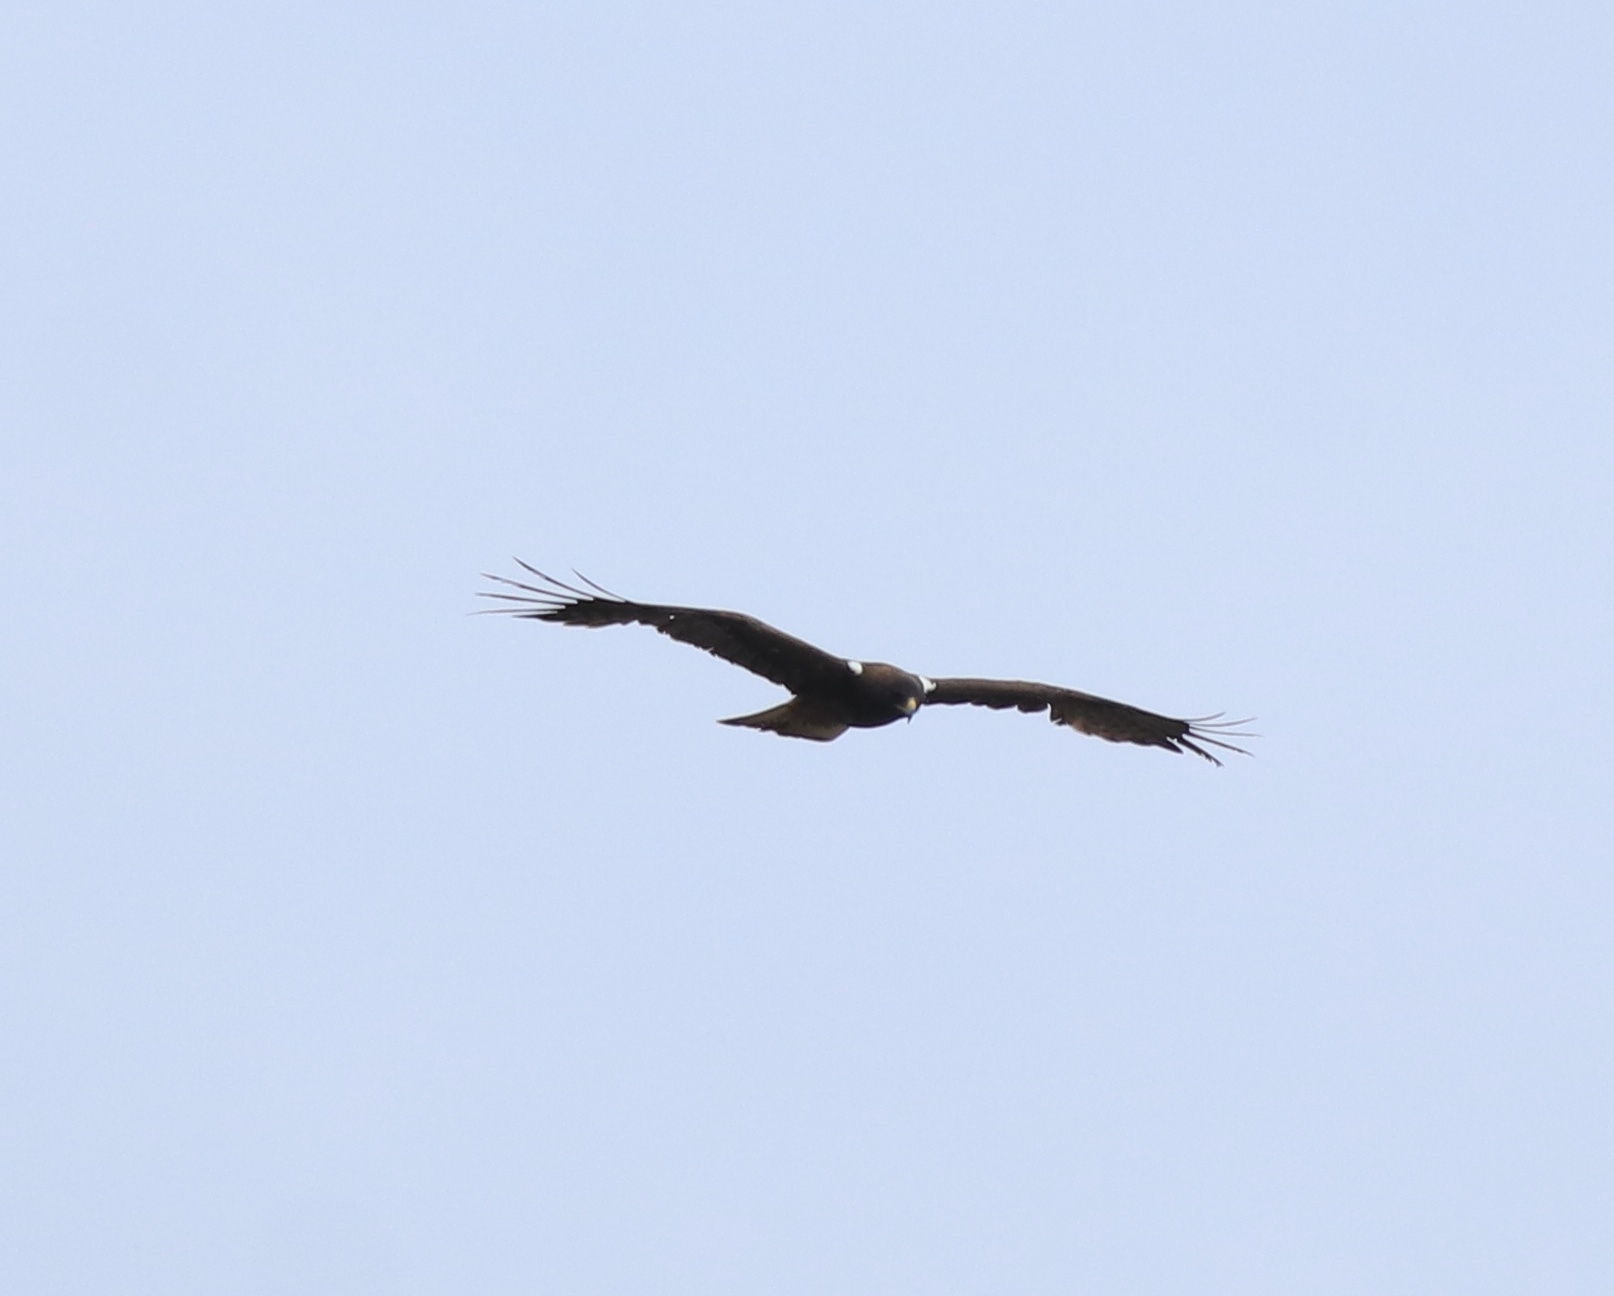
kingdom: Animalia
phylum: Chordata
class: Aves
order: Accipitriformes
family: Accipitridae
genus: Hieraaetus
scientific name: Hieraaetus pennatus
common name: Booted eagle
